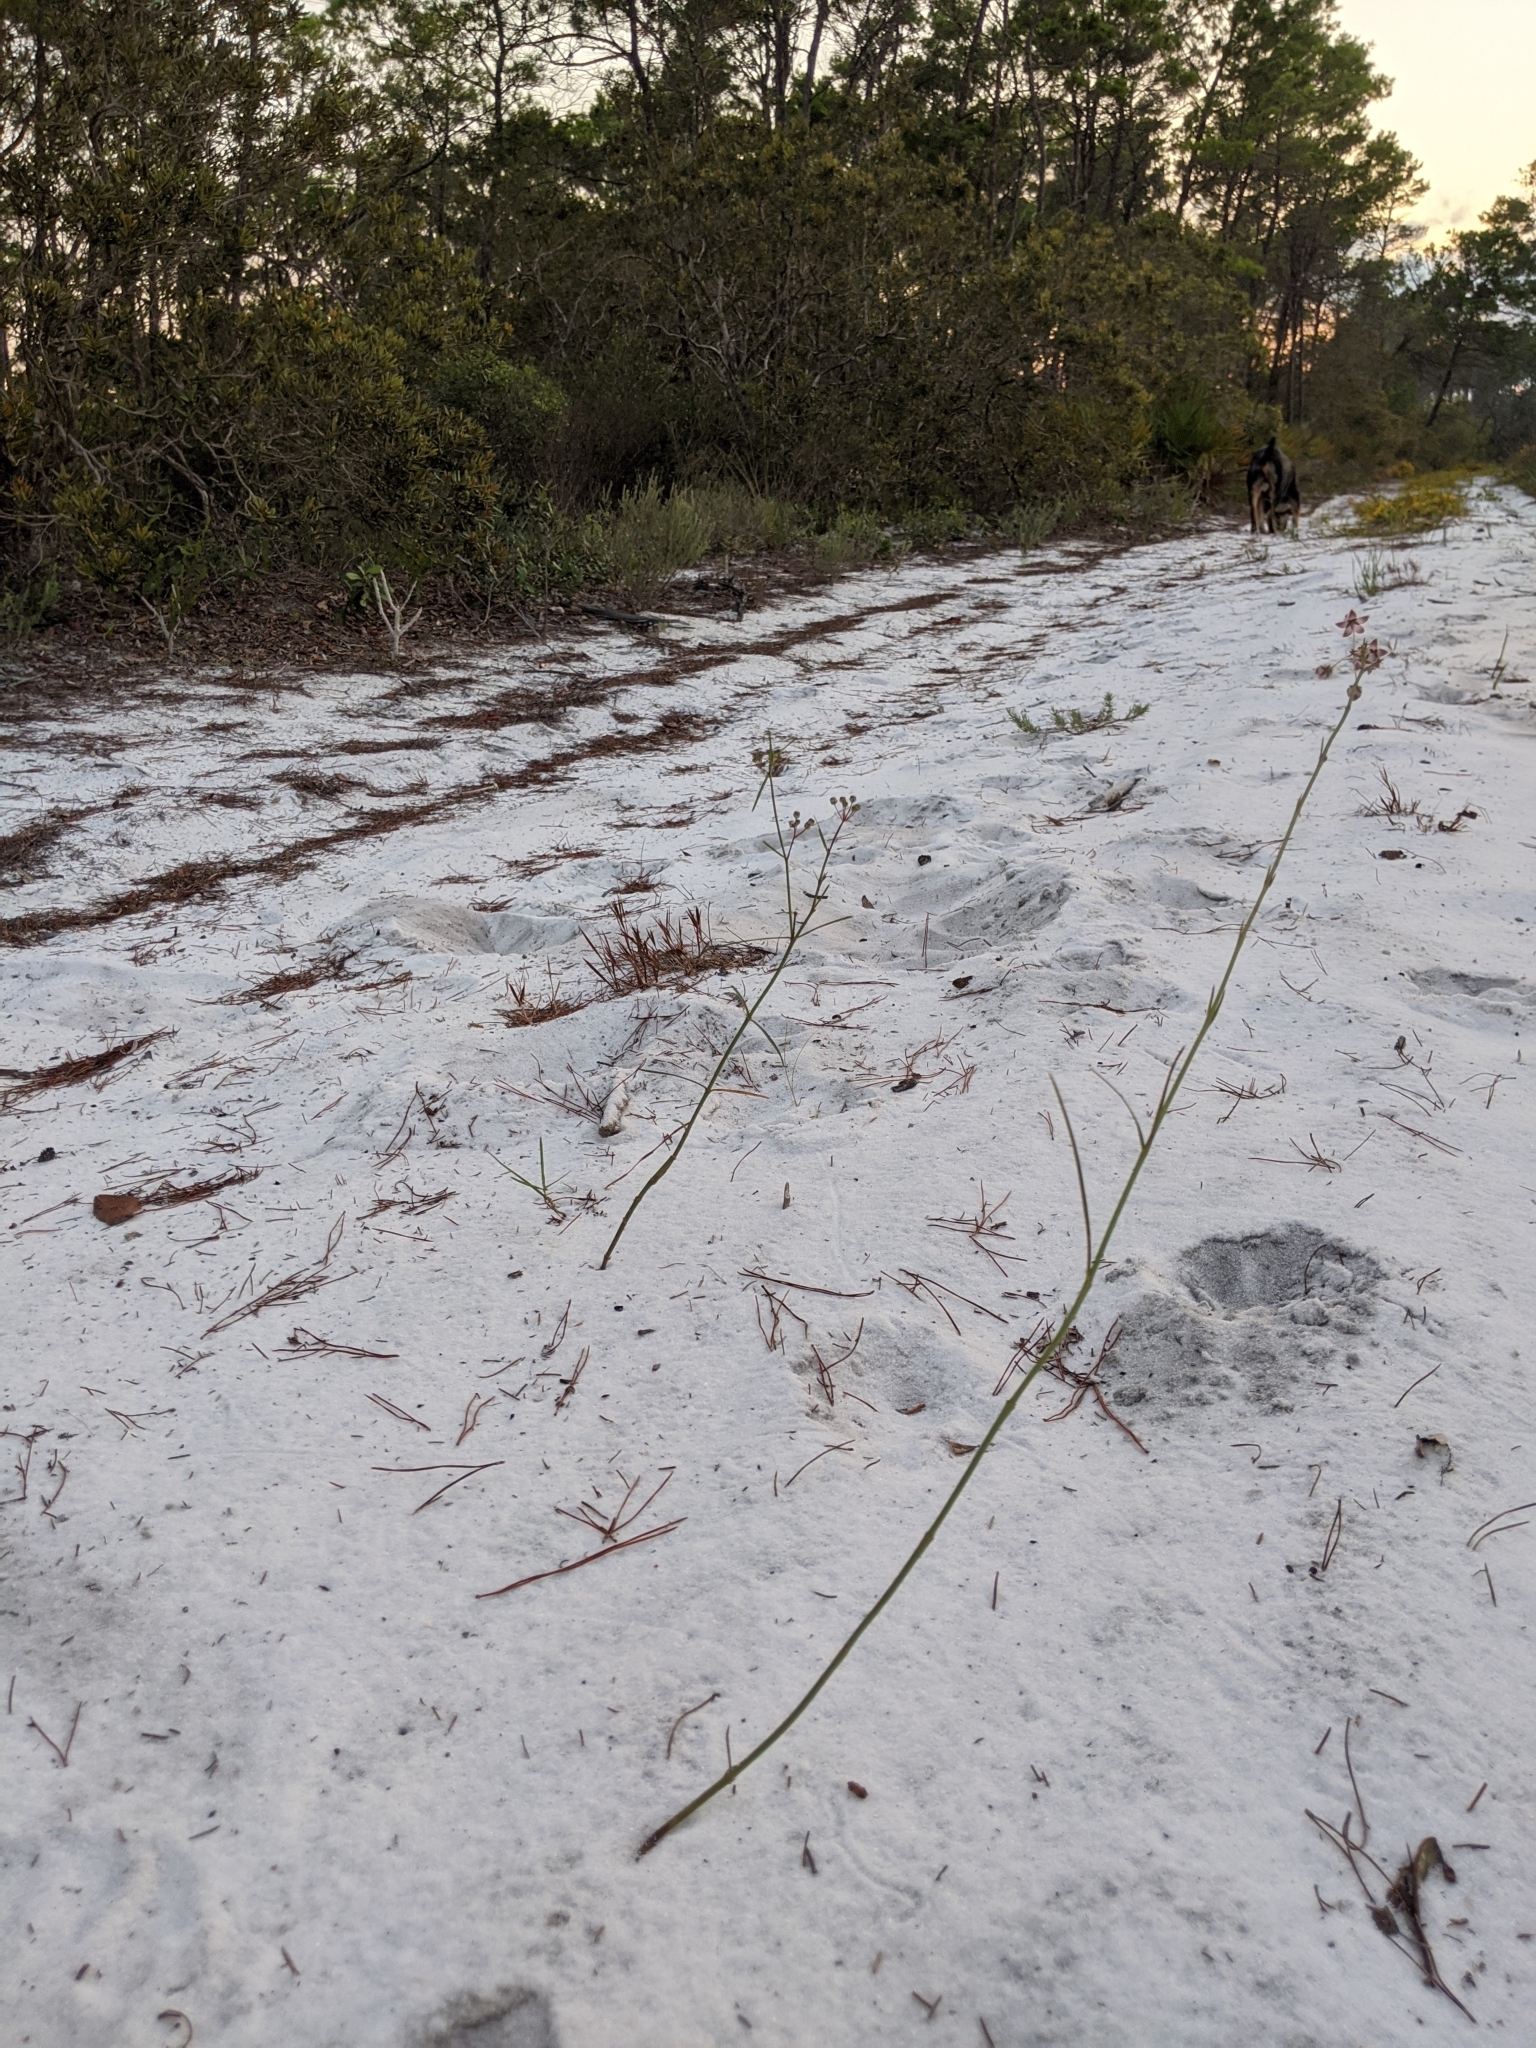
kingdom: Plantae
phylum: Tracheophyta
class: Magnoliopsida
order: Gentianales
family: Apocynaceae
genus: Asclepias
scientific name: Asclepias cinerea
